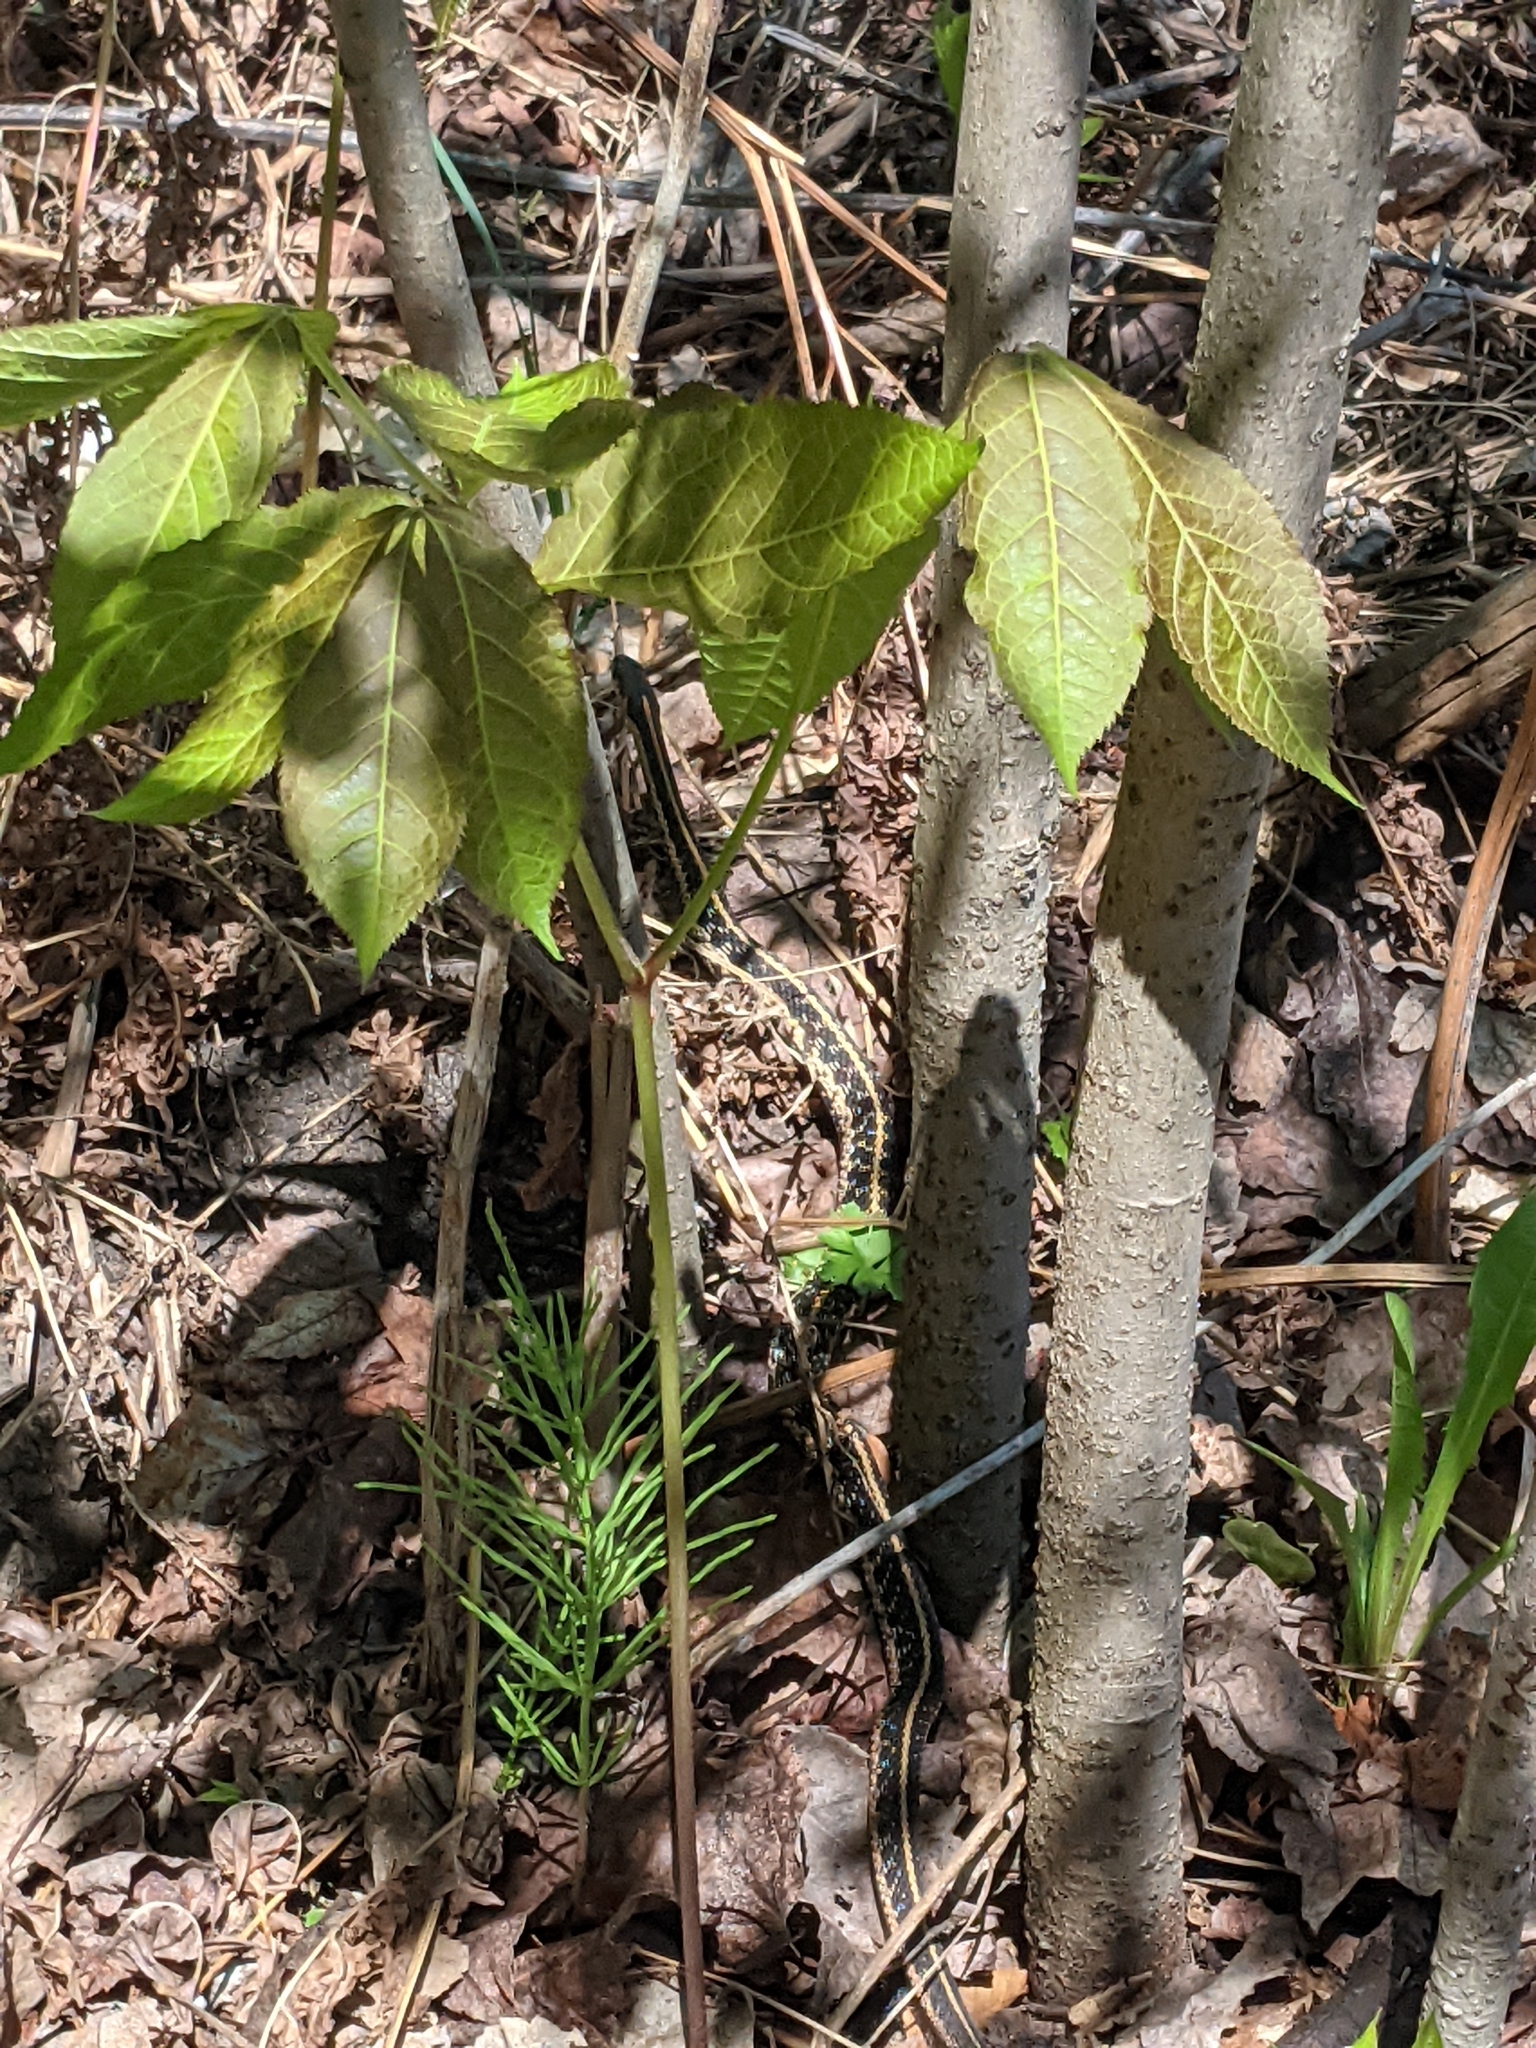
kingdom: Animalia
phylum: Chordata
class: Squamata
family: Colubridae
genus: Thamnophis
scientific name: Thamnophis sirtalis
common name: Common garter snake
